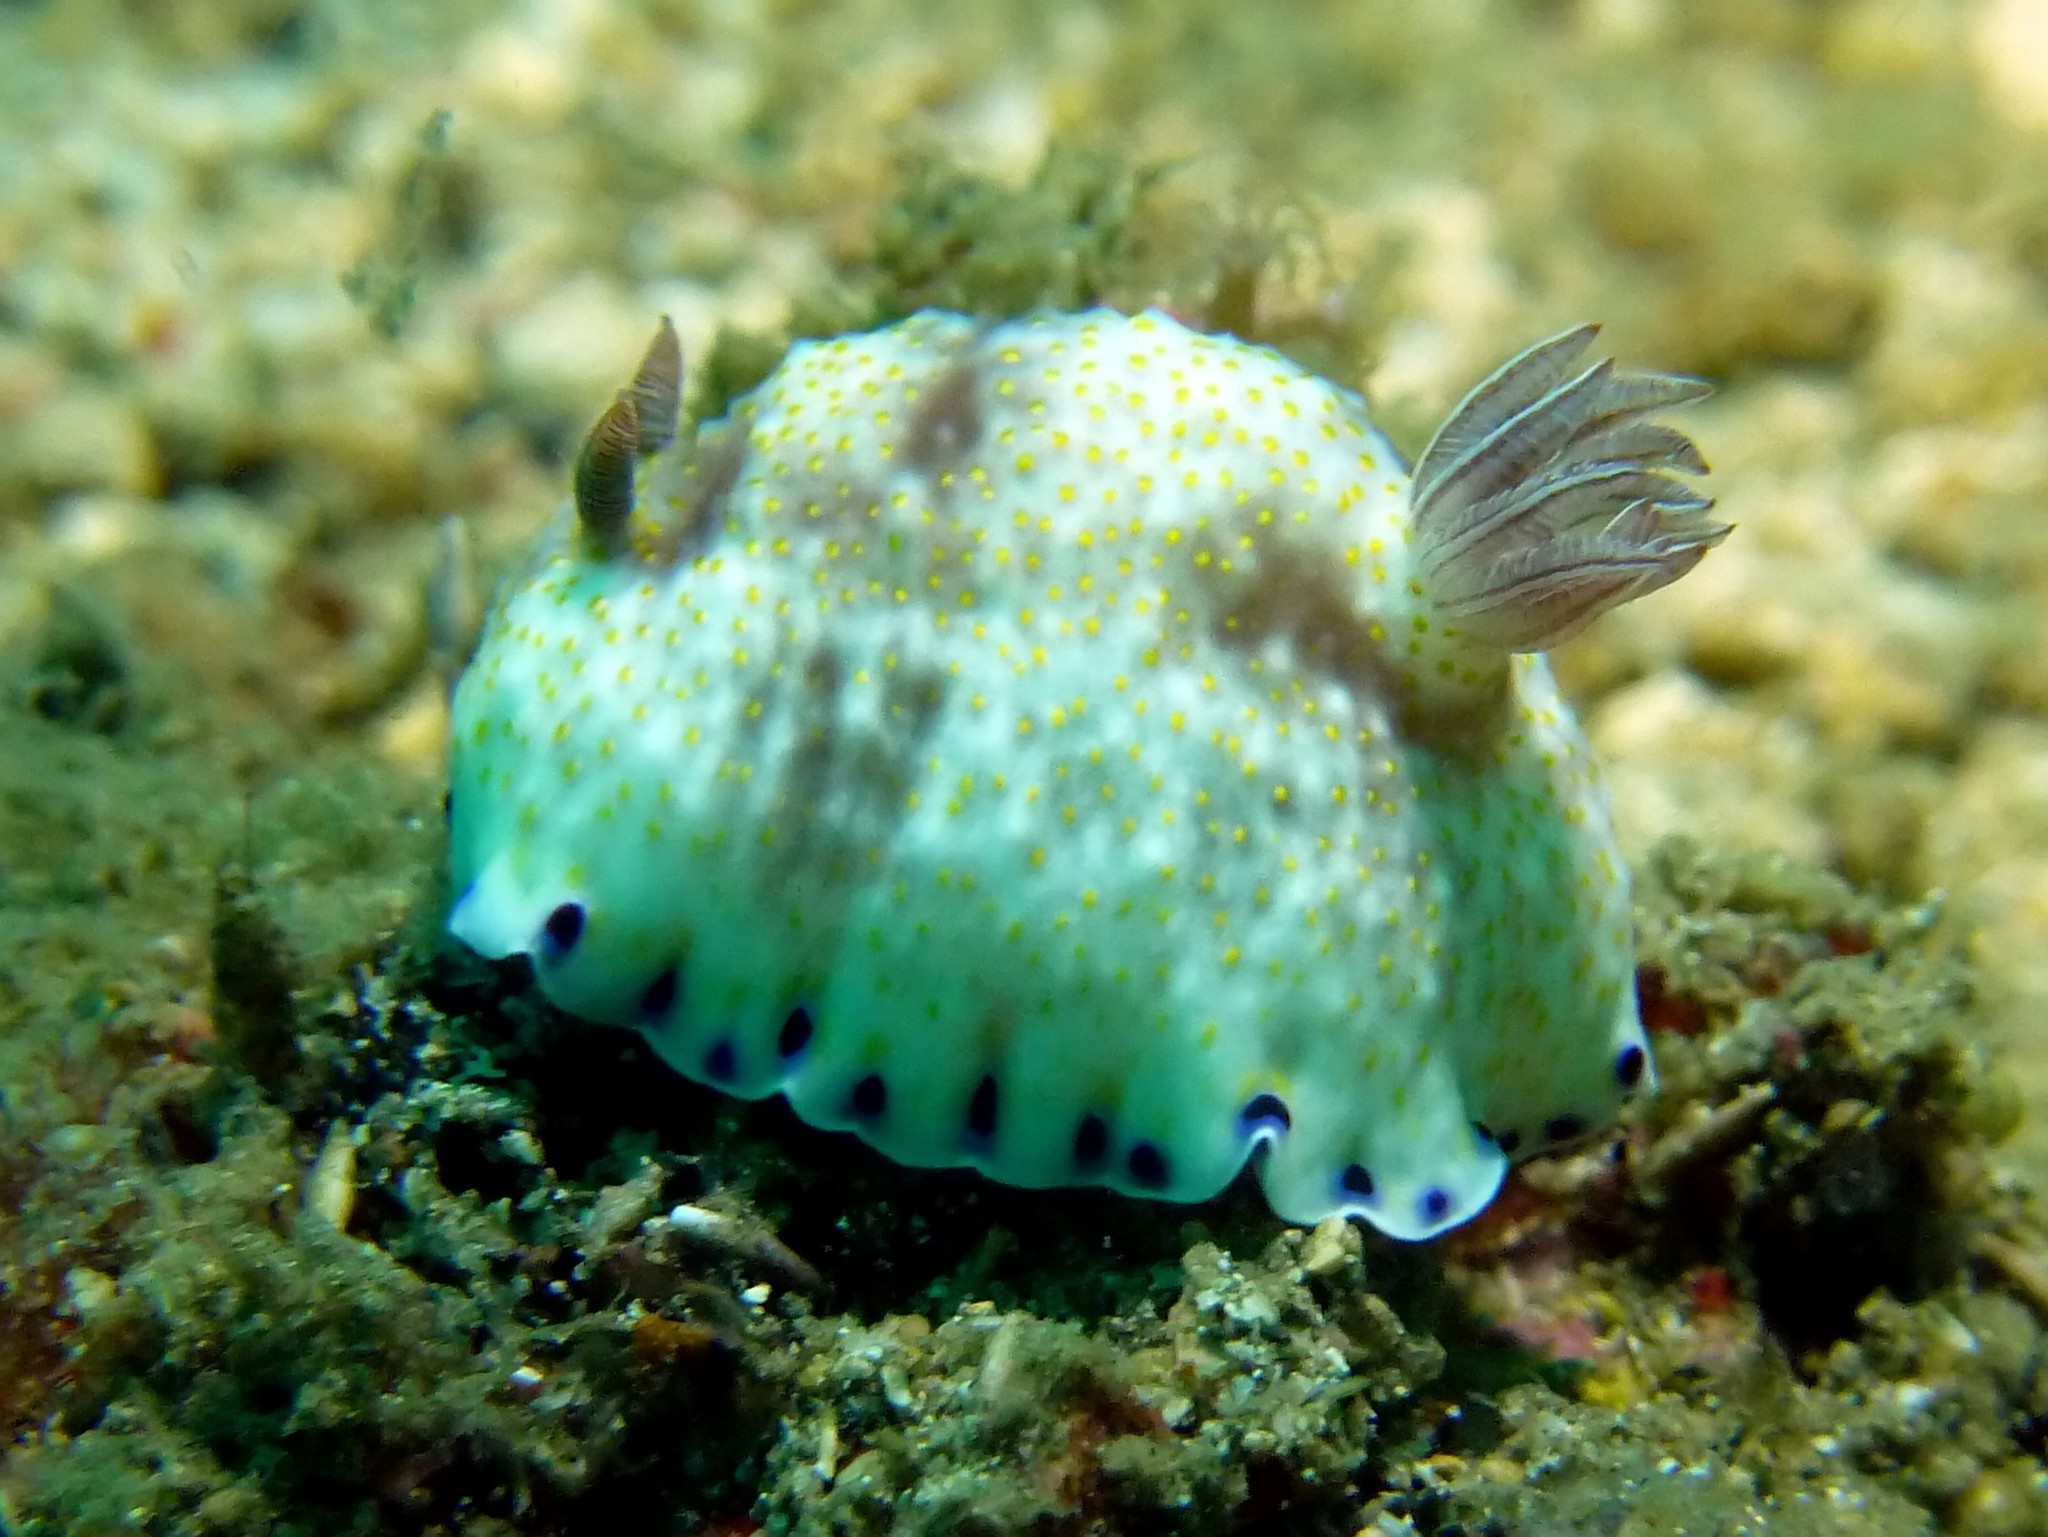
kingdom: Animalia
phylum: Mollusca
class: Gastropoda
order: Nudibranchia
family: Chromodorididae
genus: Goniobranchus
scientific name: Goniobranchus aureopurpureus
